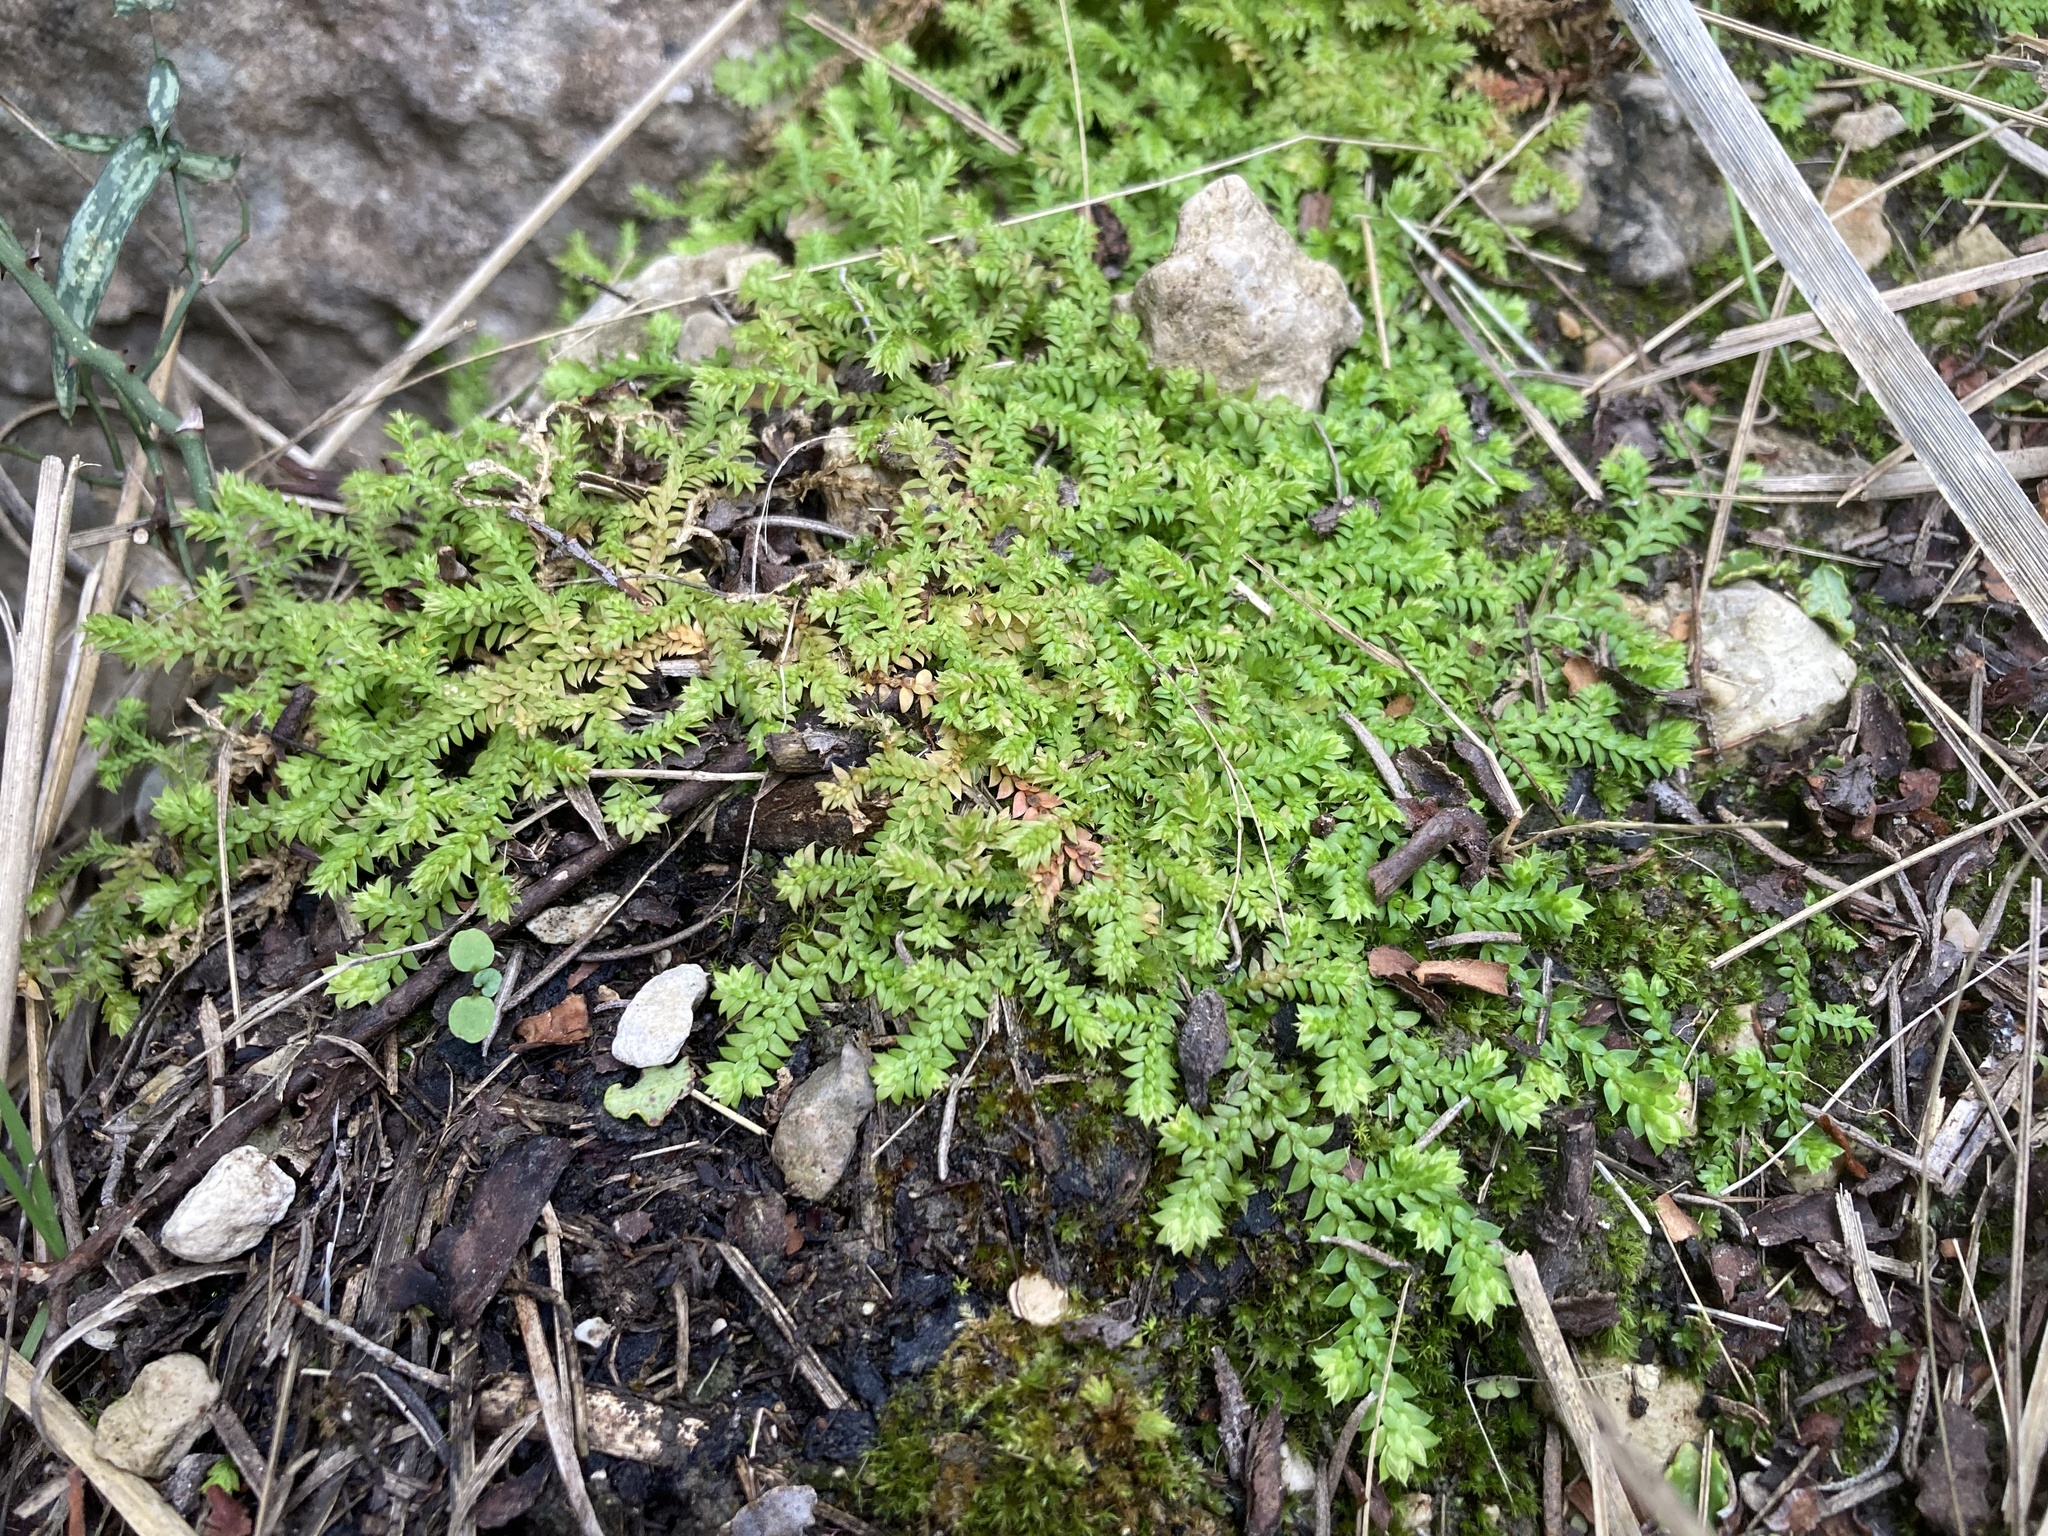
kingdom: Plantae
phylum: Tracheophyta
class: Lycopodiopsida
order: Selaginellales
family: Selaginellaceae
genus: Selaginella
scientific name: Selaginella denticulata
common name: Toothed-leaved clubmoss
